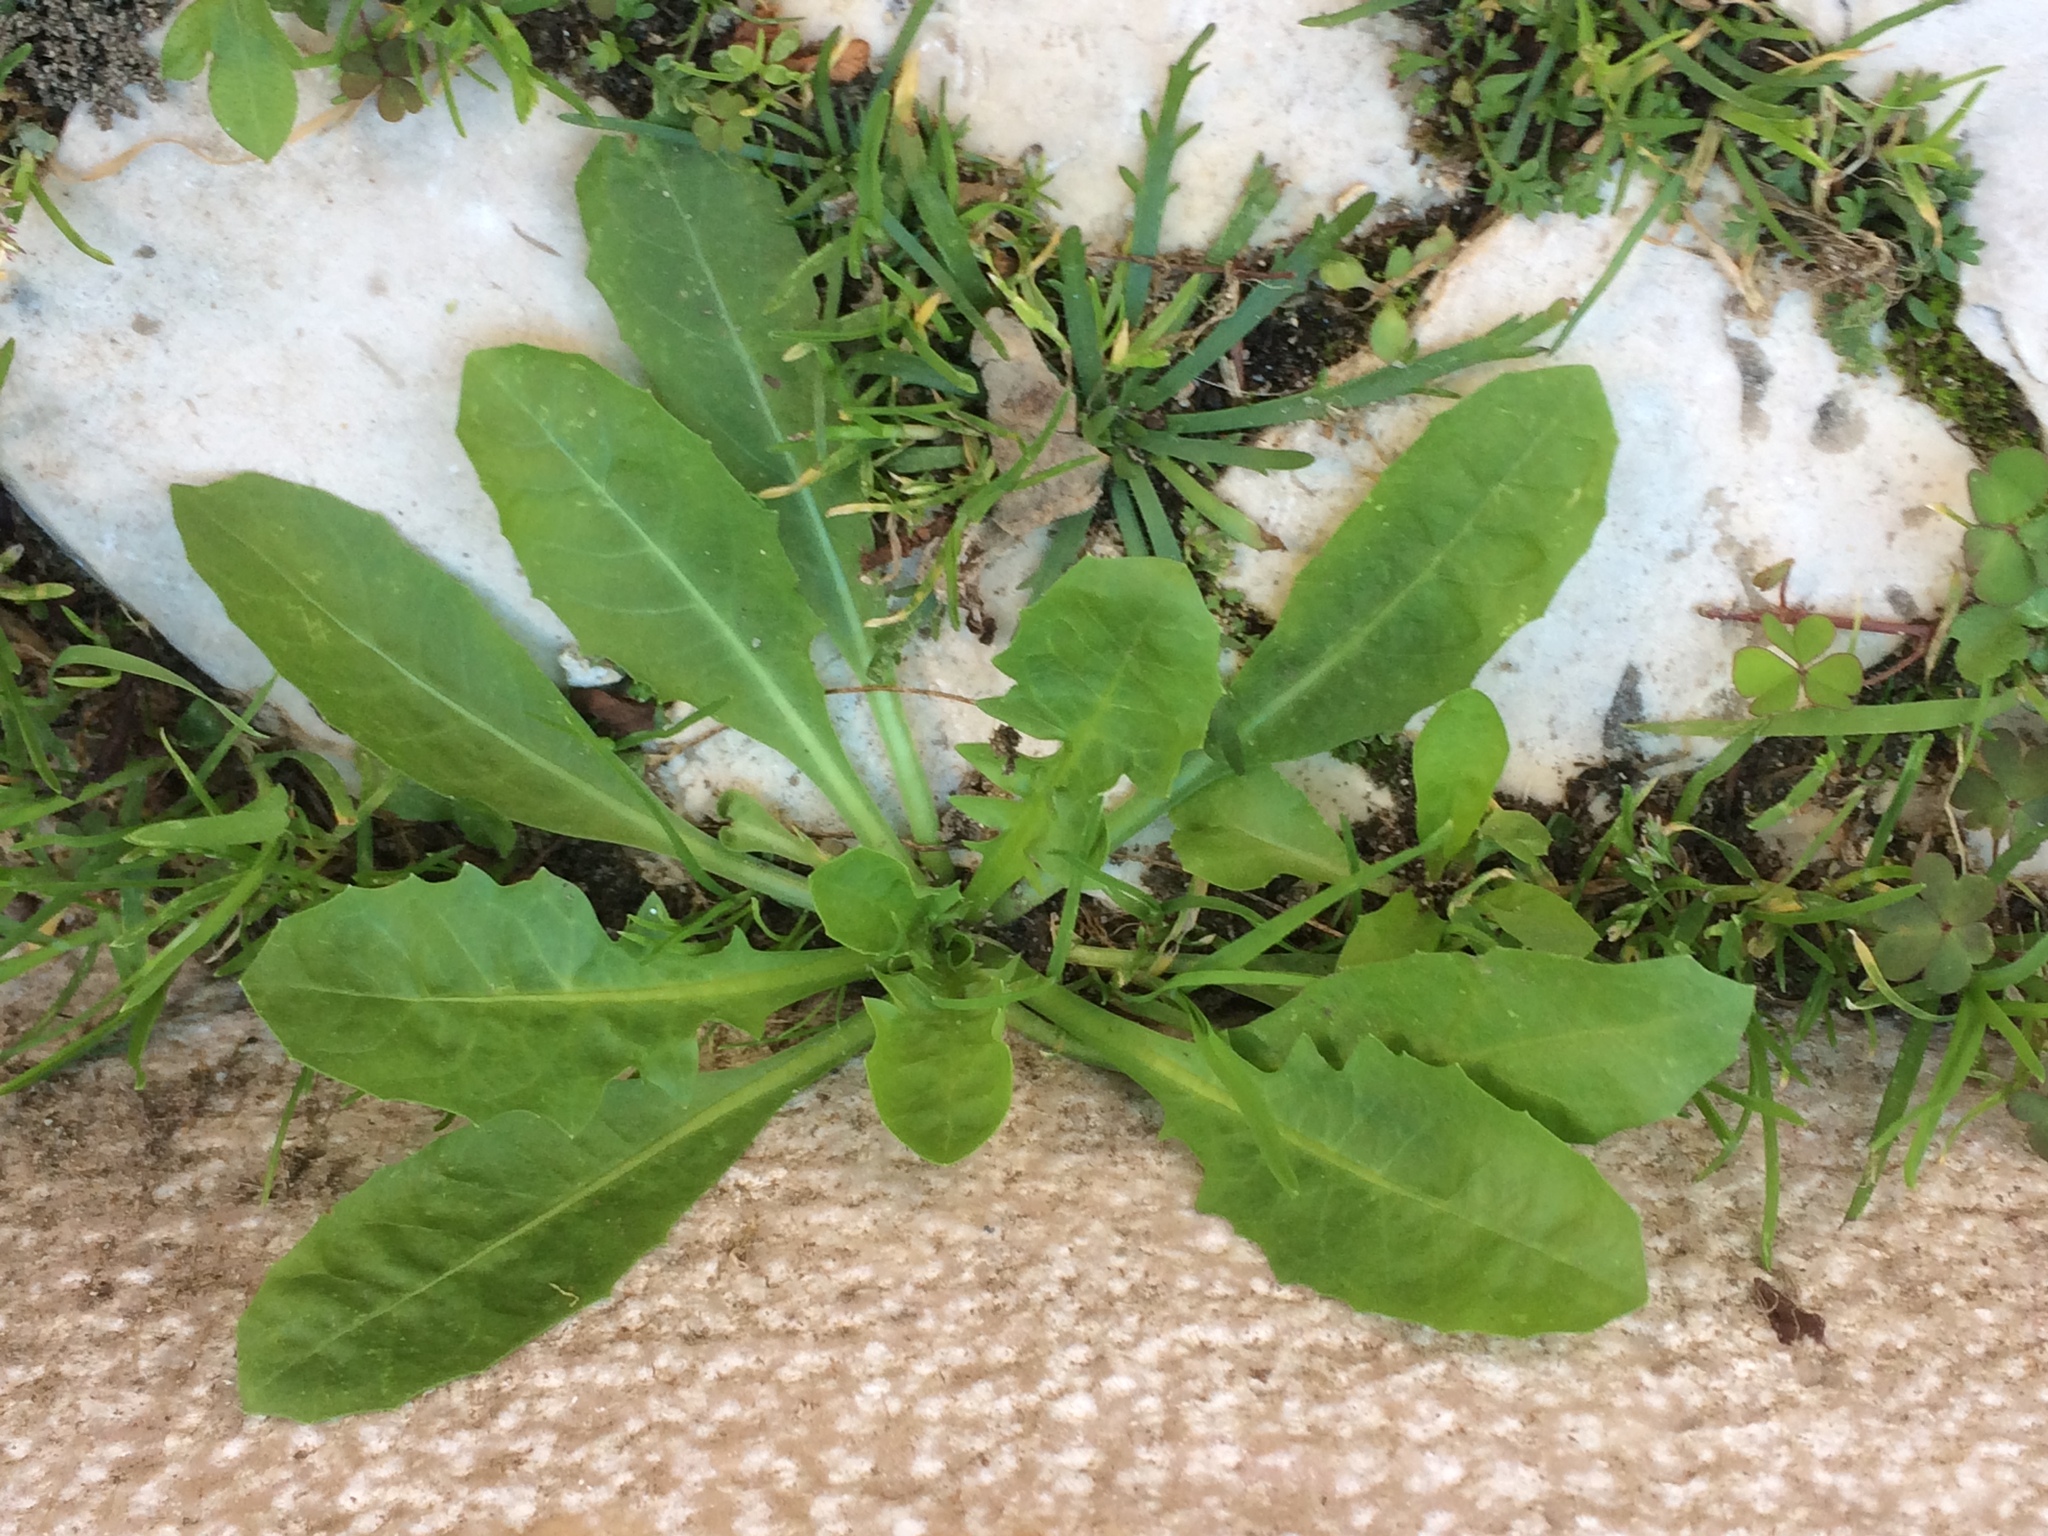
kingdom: Plantae
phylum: Tracheophyta
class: Magnoliopsida
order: Asterales
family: Asteraceae
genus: Crepis
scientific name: Crepis bursifolia
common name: Italian hawksbeard
